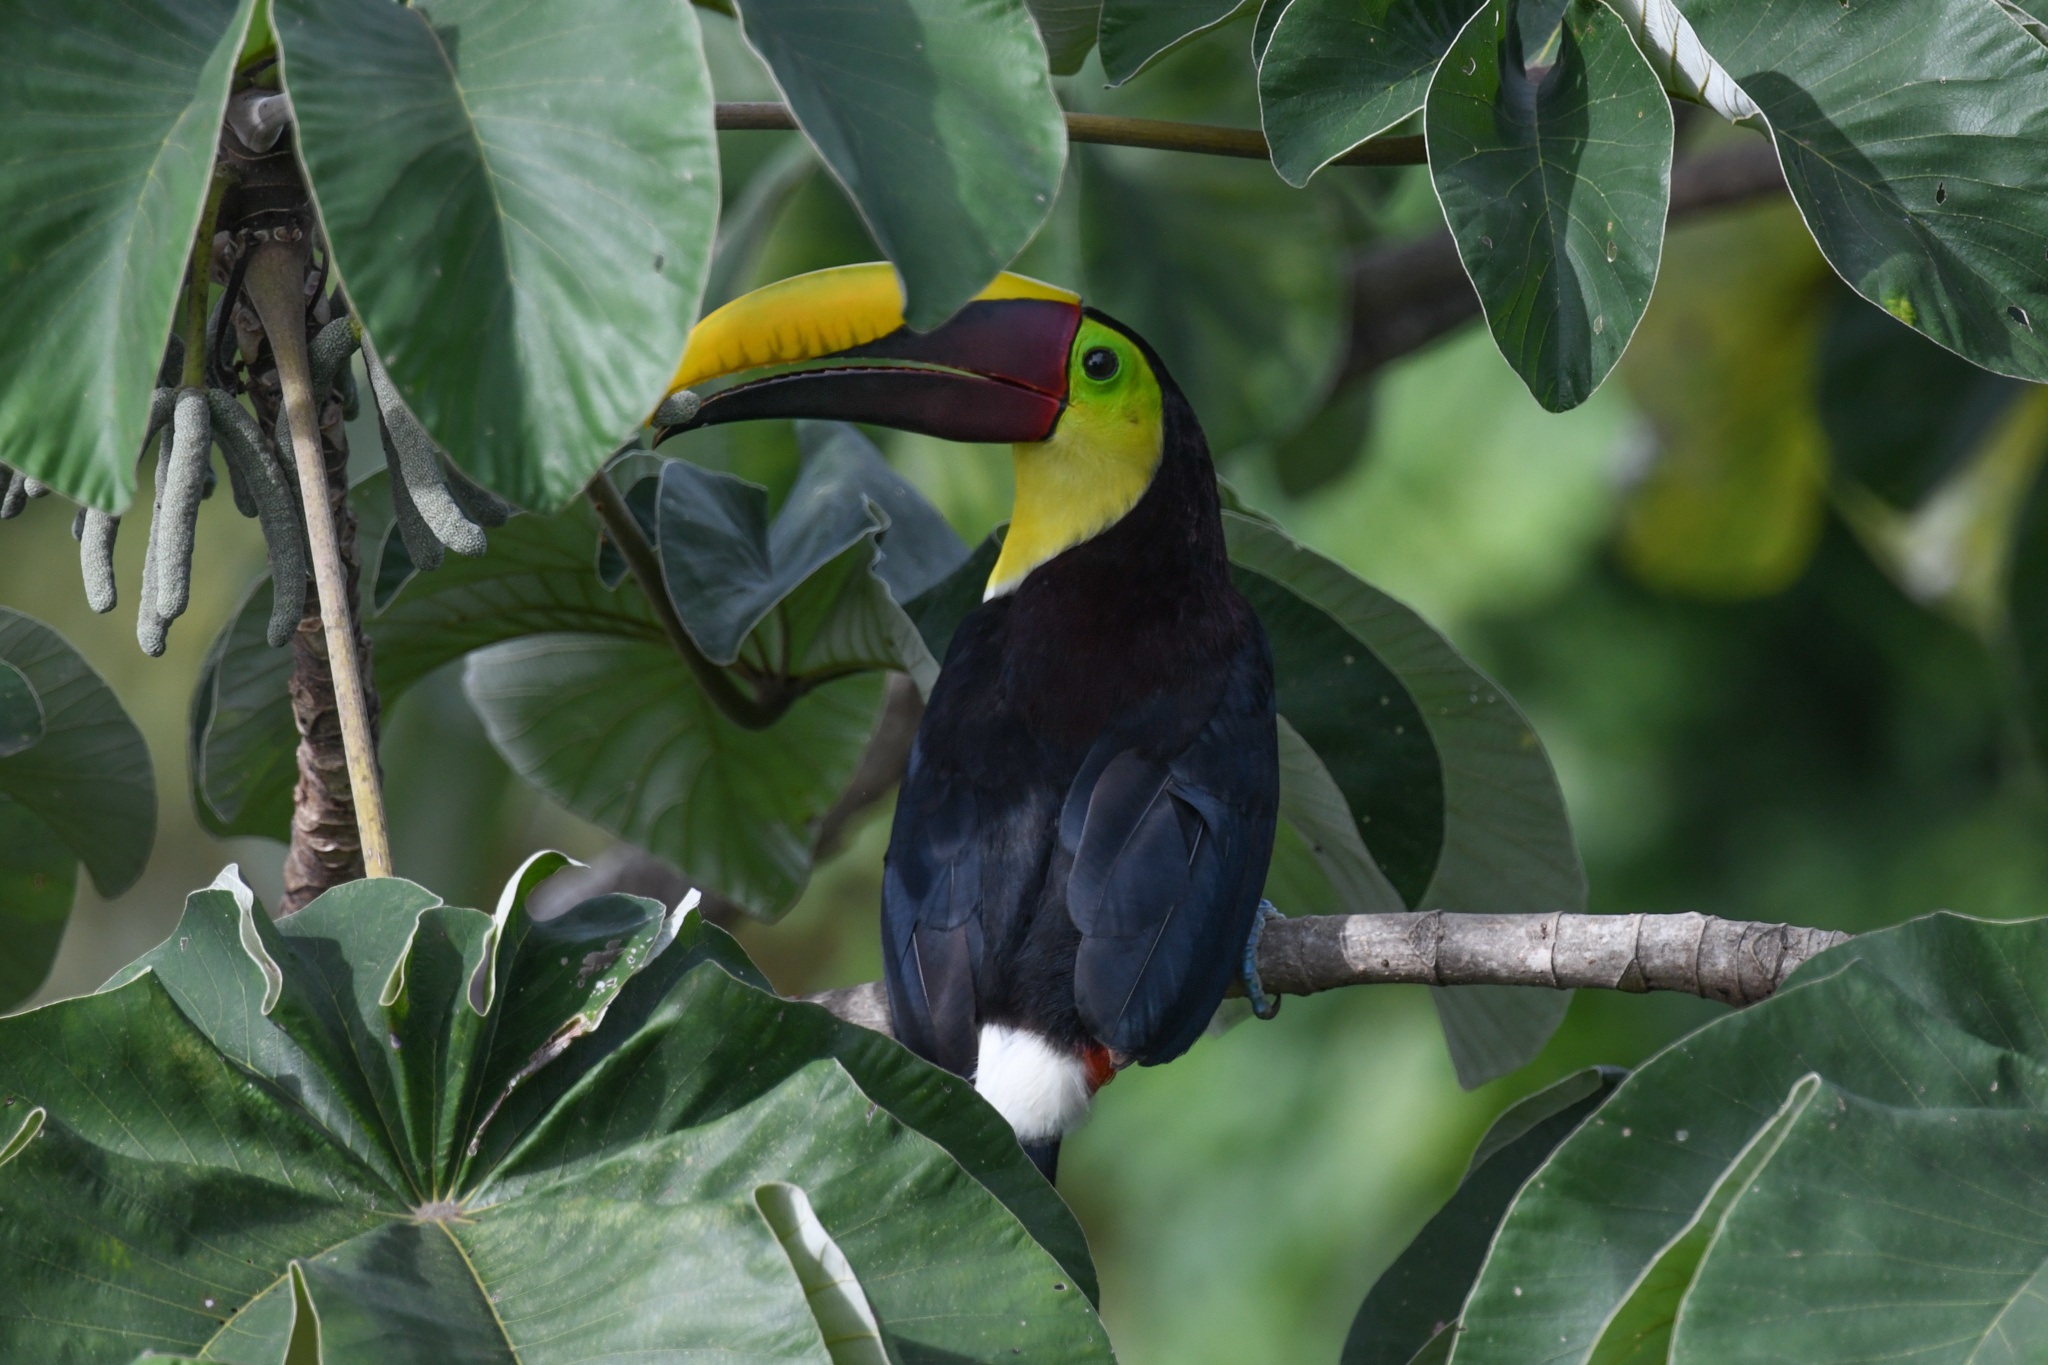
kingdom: Animalia
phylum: Chordata
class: Aves
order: Piciformes
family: Ramphastidae
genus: Ramphastos
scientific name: Ramphastos ambiguus
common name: Yellow-throated toucan
